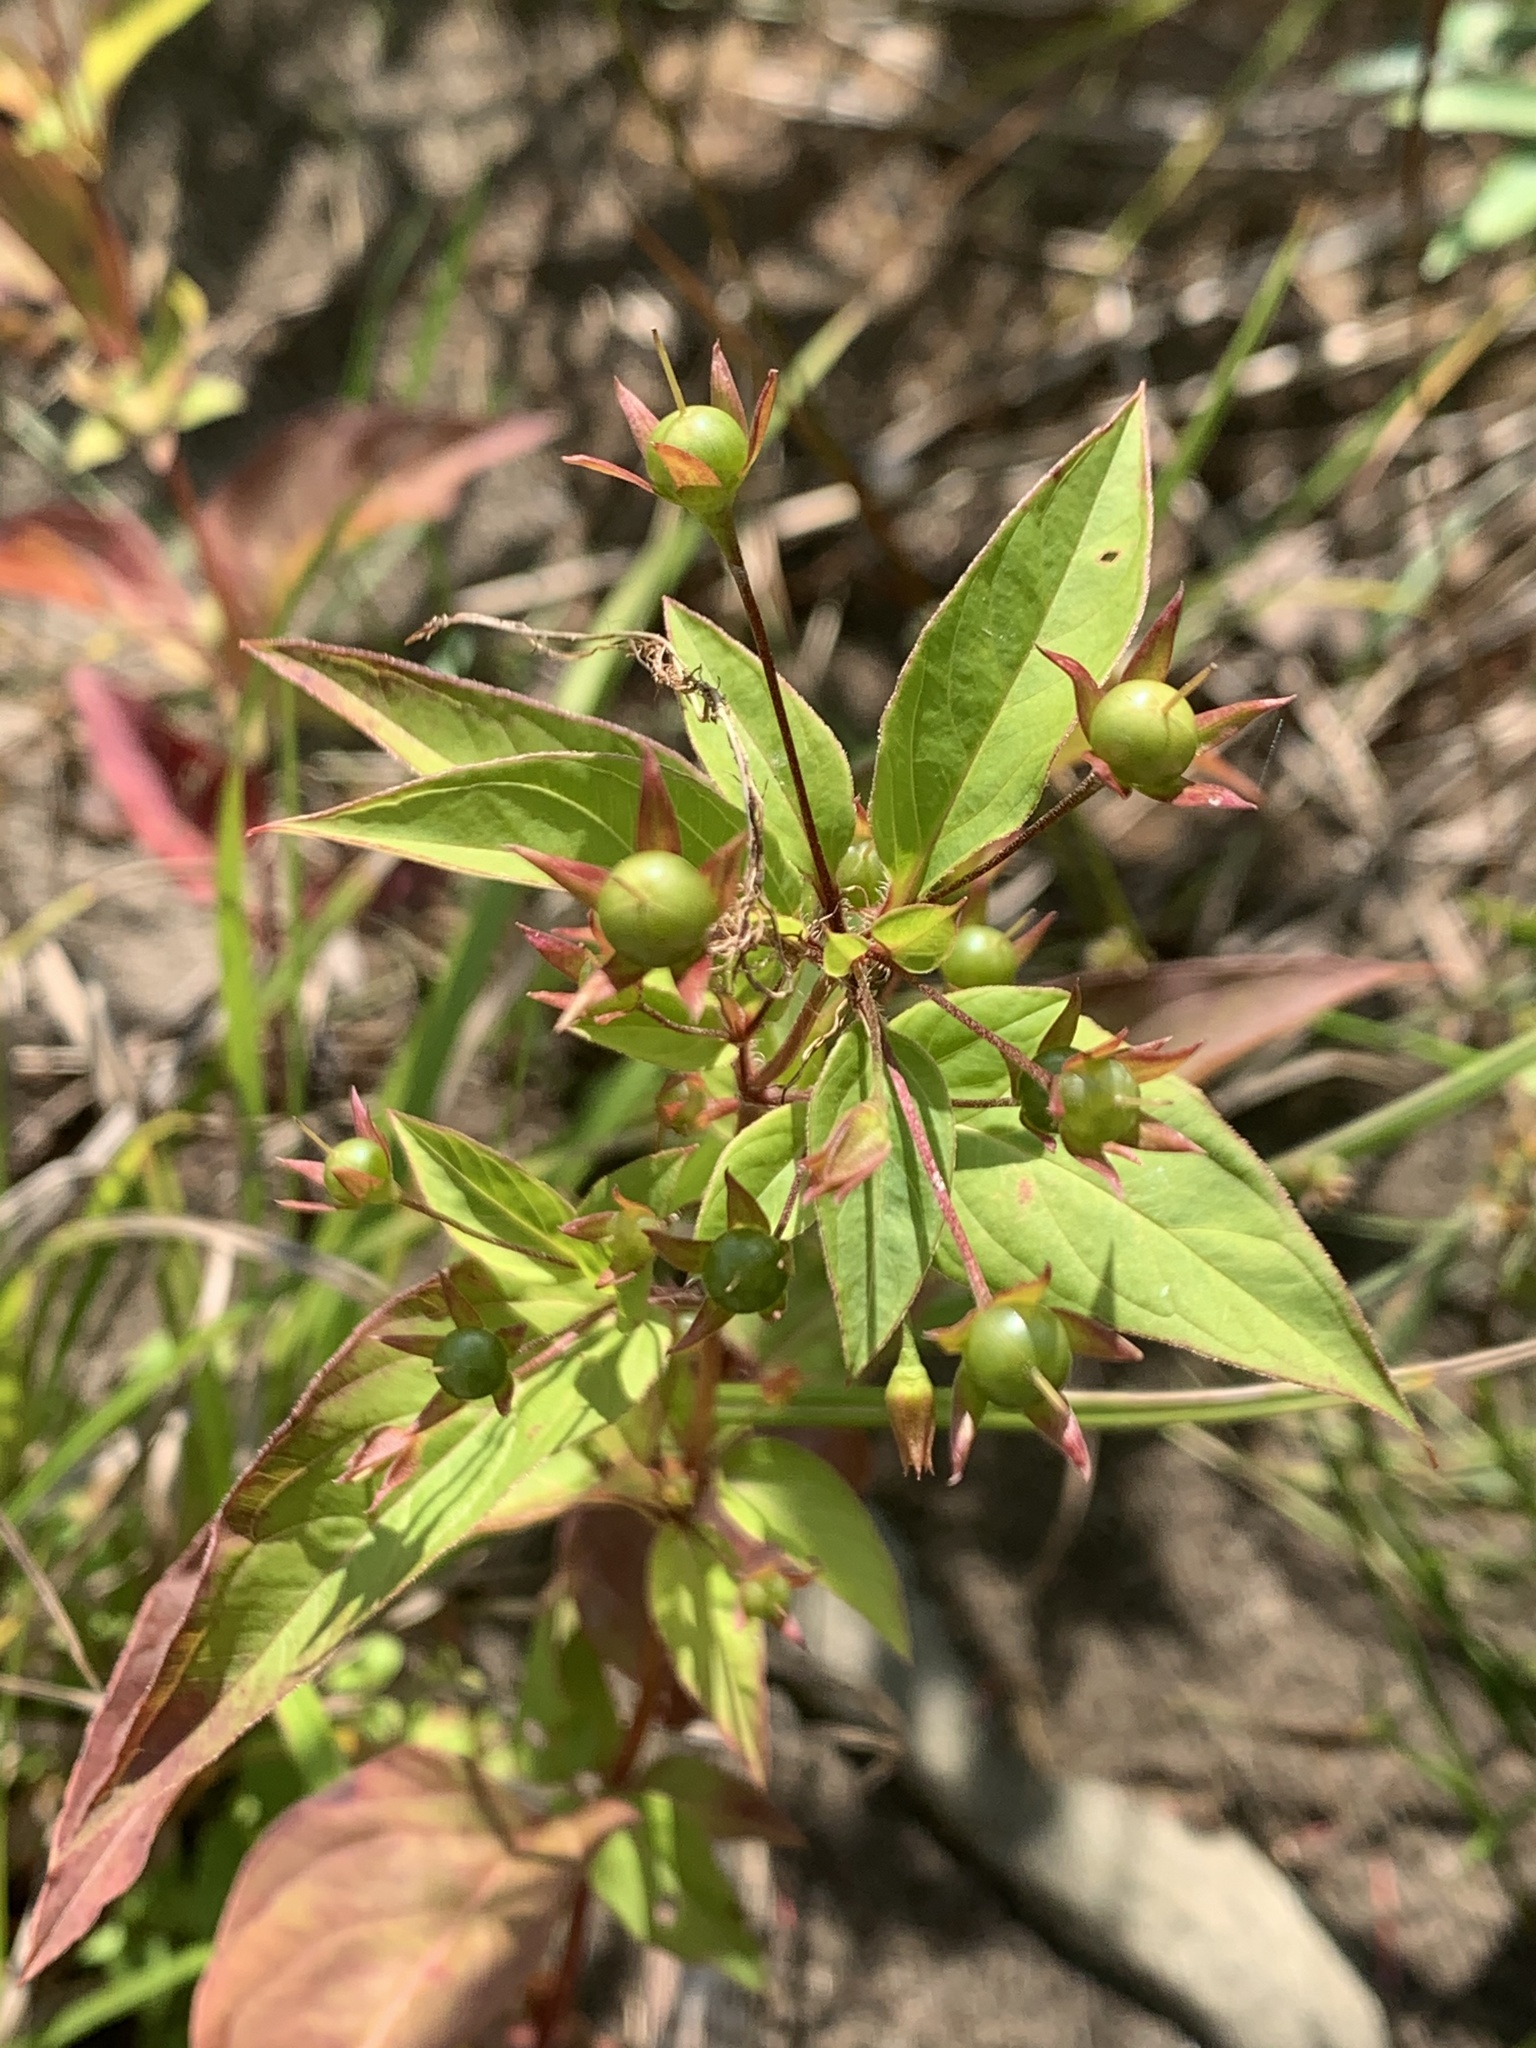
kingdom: Plantae
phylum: Tracheophyta
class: Magnoliopsida
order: Ericales
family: Primulaceae
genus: Lysimachia
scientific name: Lysimachia ciliata
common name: Fringed loosestrife
